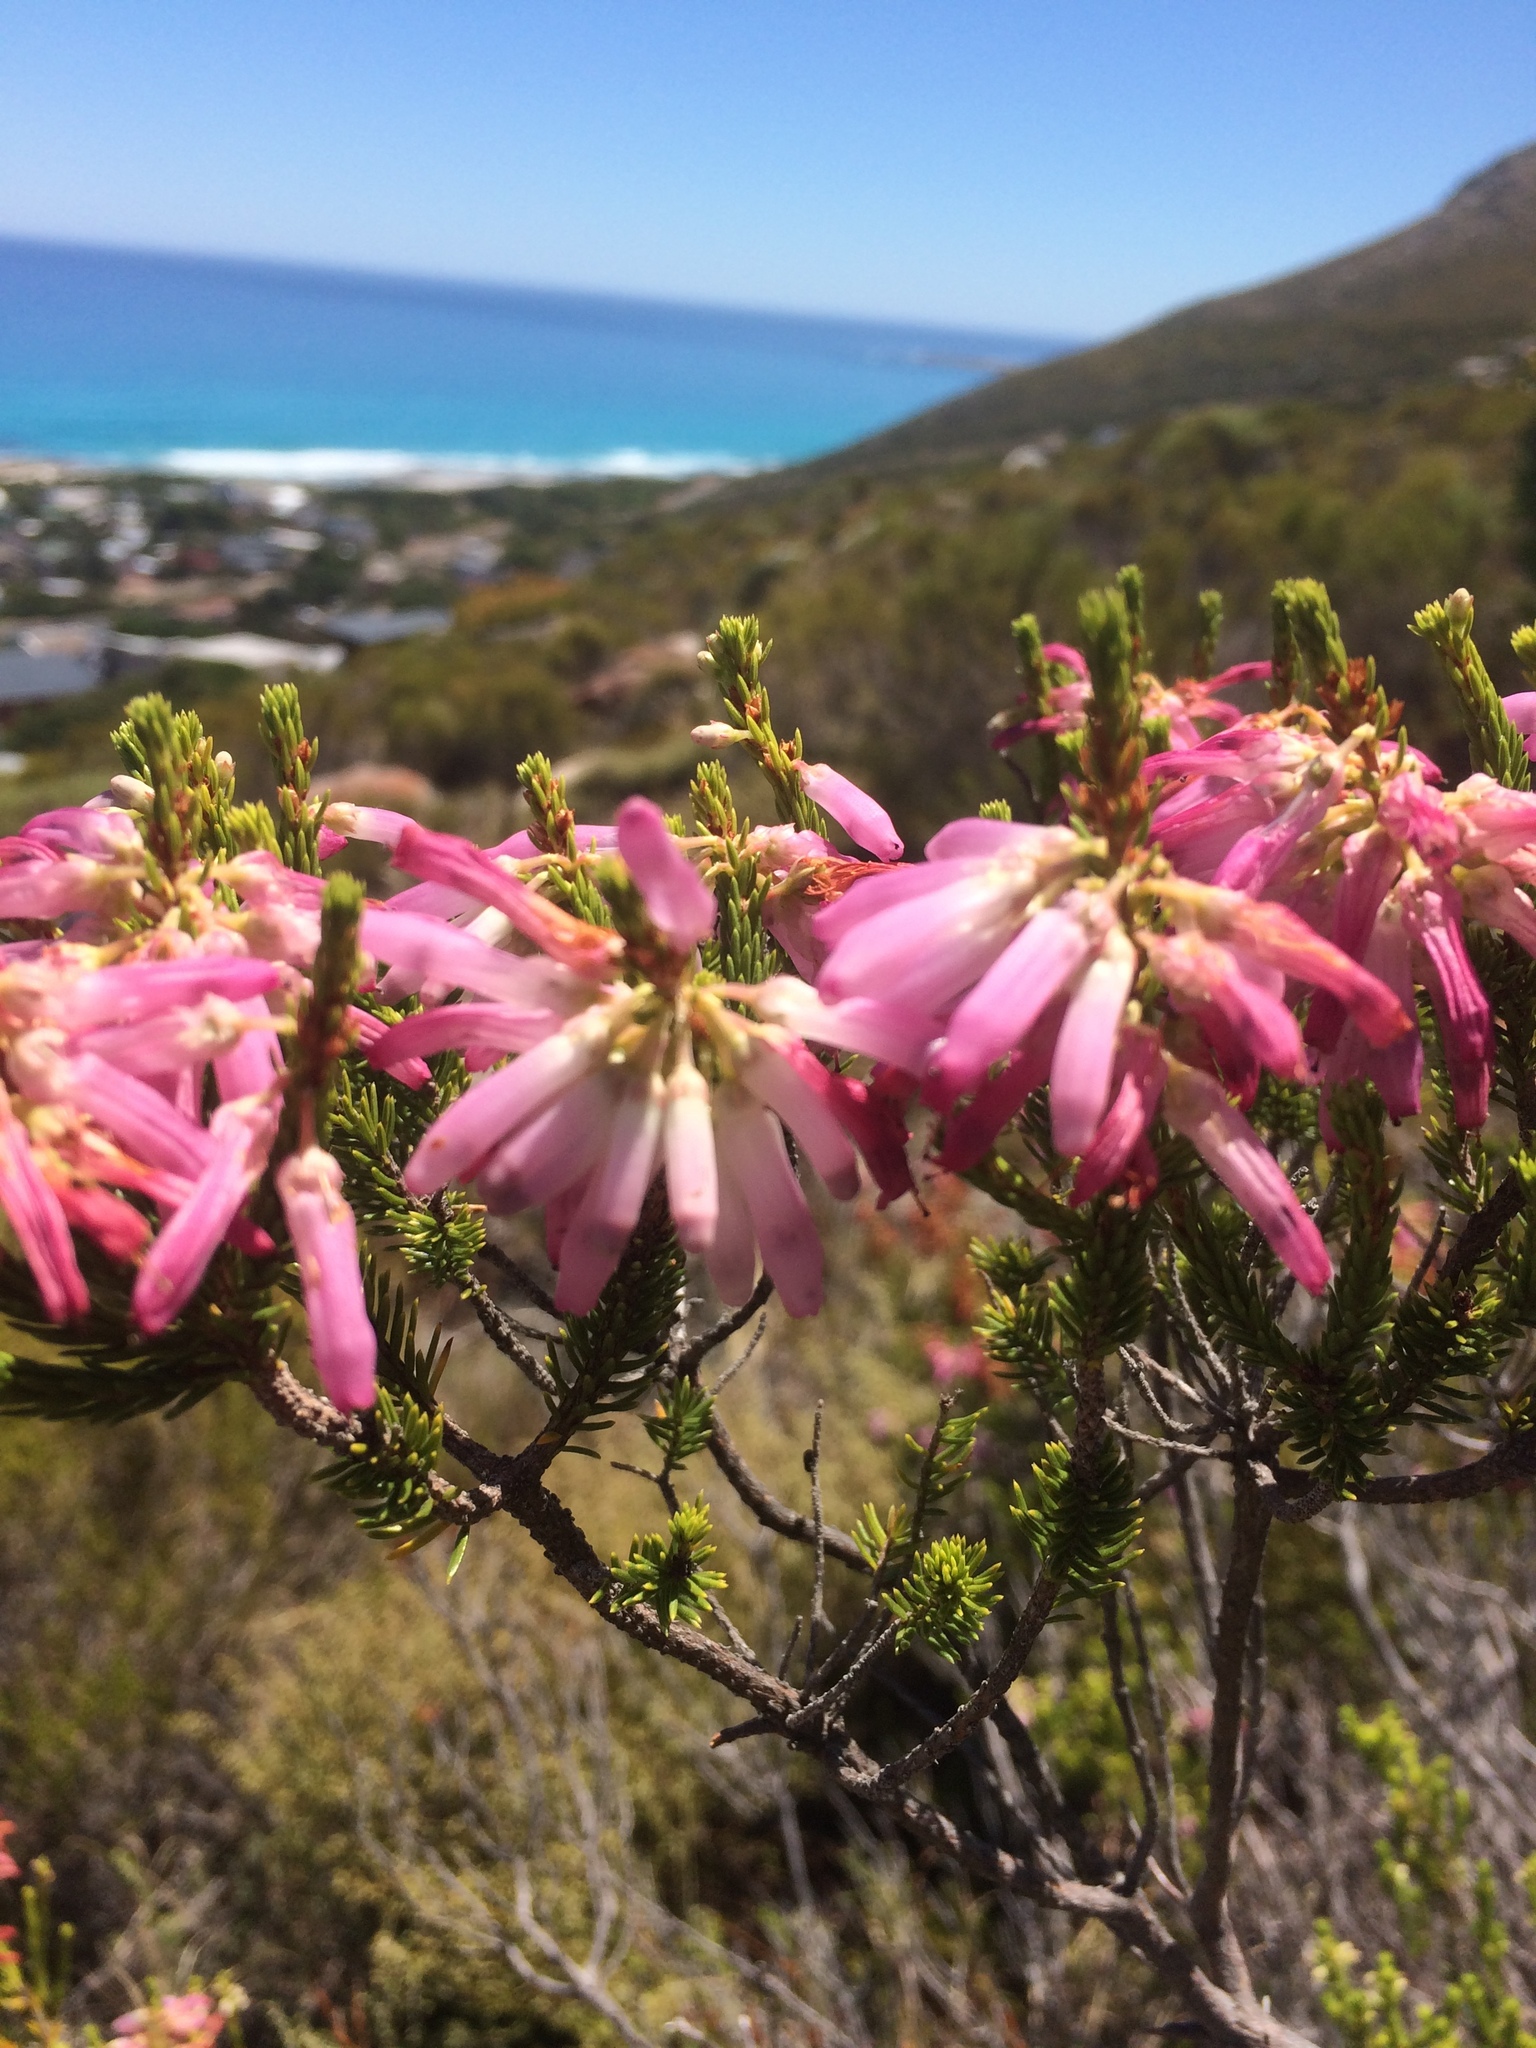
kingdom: Plantae
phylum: Tracheophyta
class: Magnoliopsida
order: Ericales
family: Ericaceae
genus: Erica
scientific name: Erica mammosa
